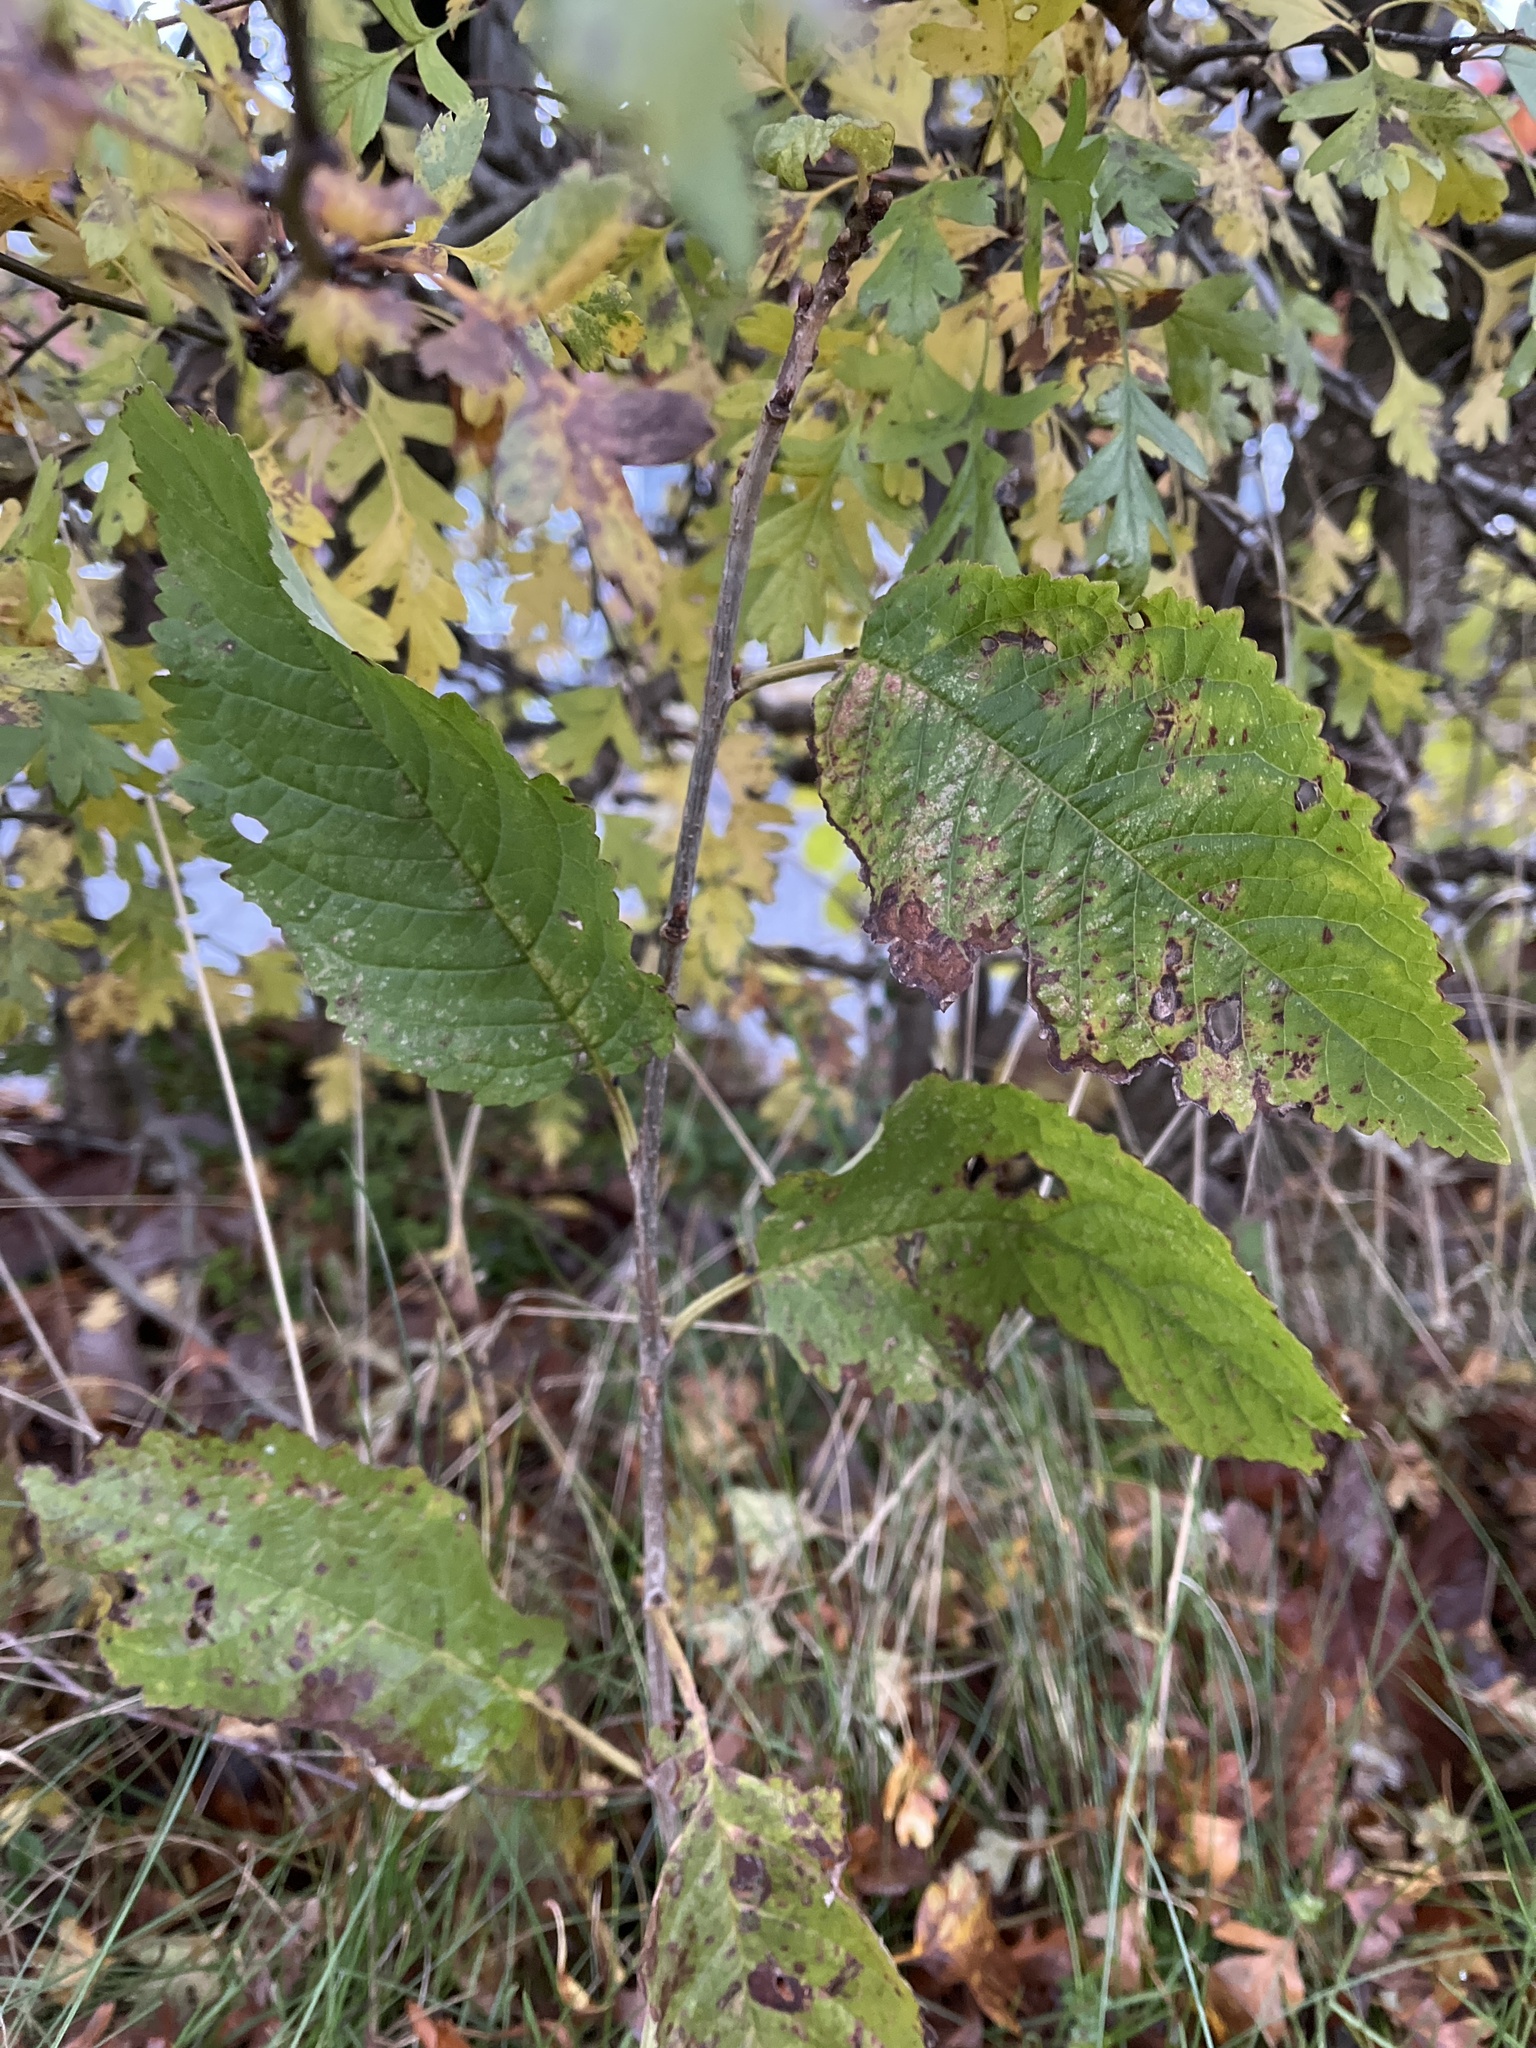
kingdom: Plantae
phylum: Tracheophyta
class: Magnoliopsida
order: Rosales
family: Rosaceae
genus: Prunus
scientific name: Prunus avium
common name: Sweet cherry
